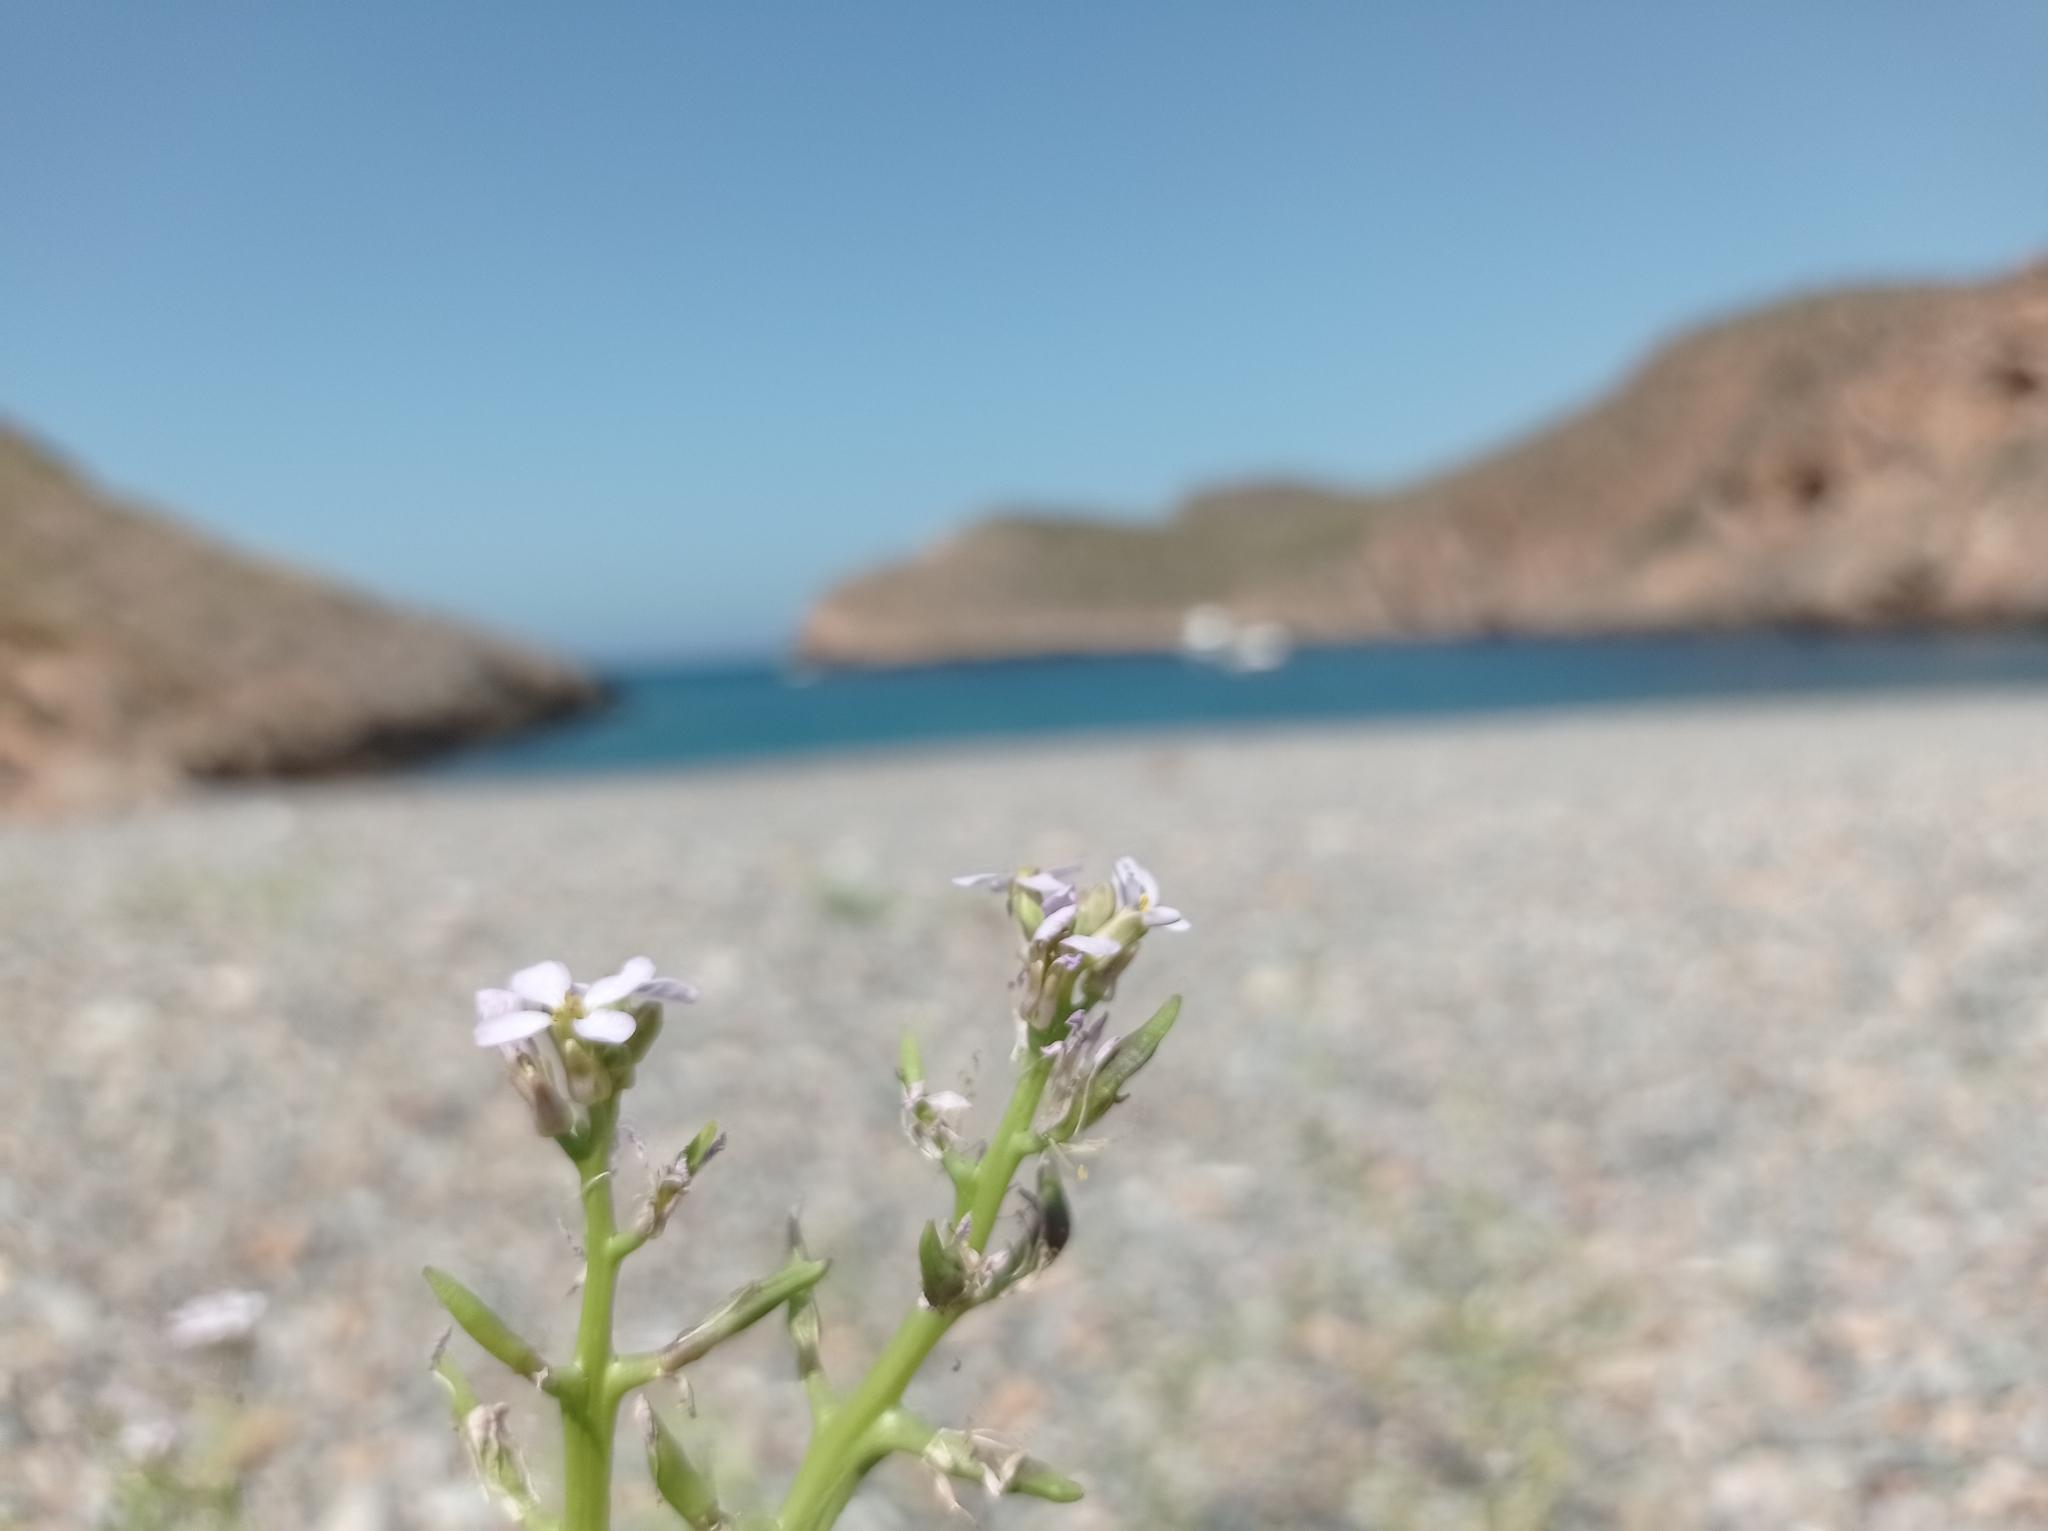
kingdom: Plantae
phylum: Tracheophyta
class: Magnoliopsida
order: Brassicales
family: Brassicaceae
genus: Cakile
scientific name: Cakile maritima
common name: Sea rocket
